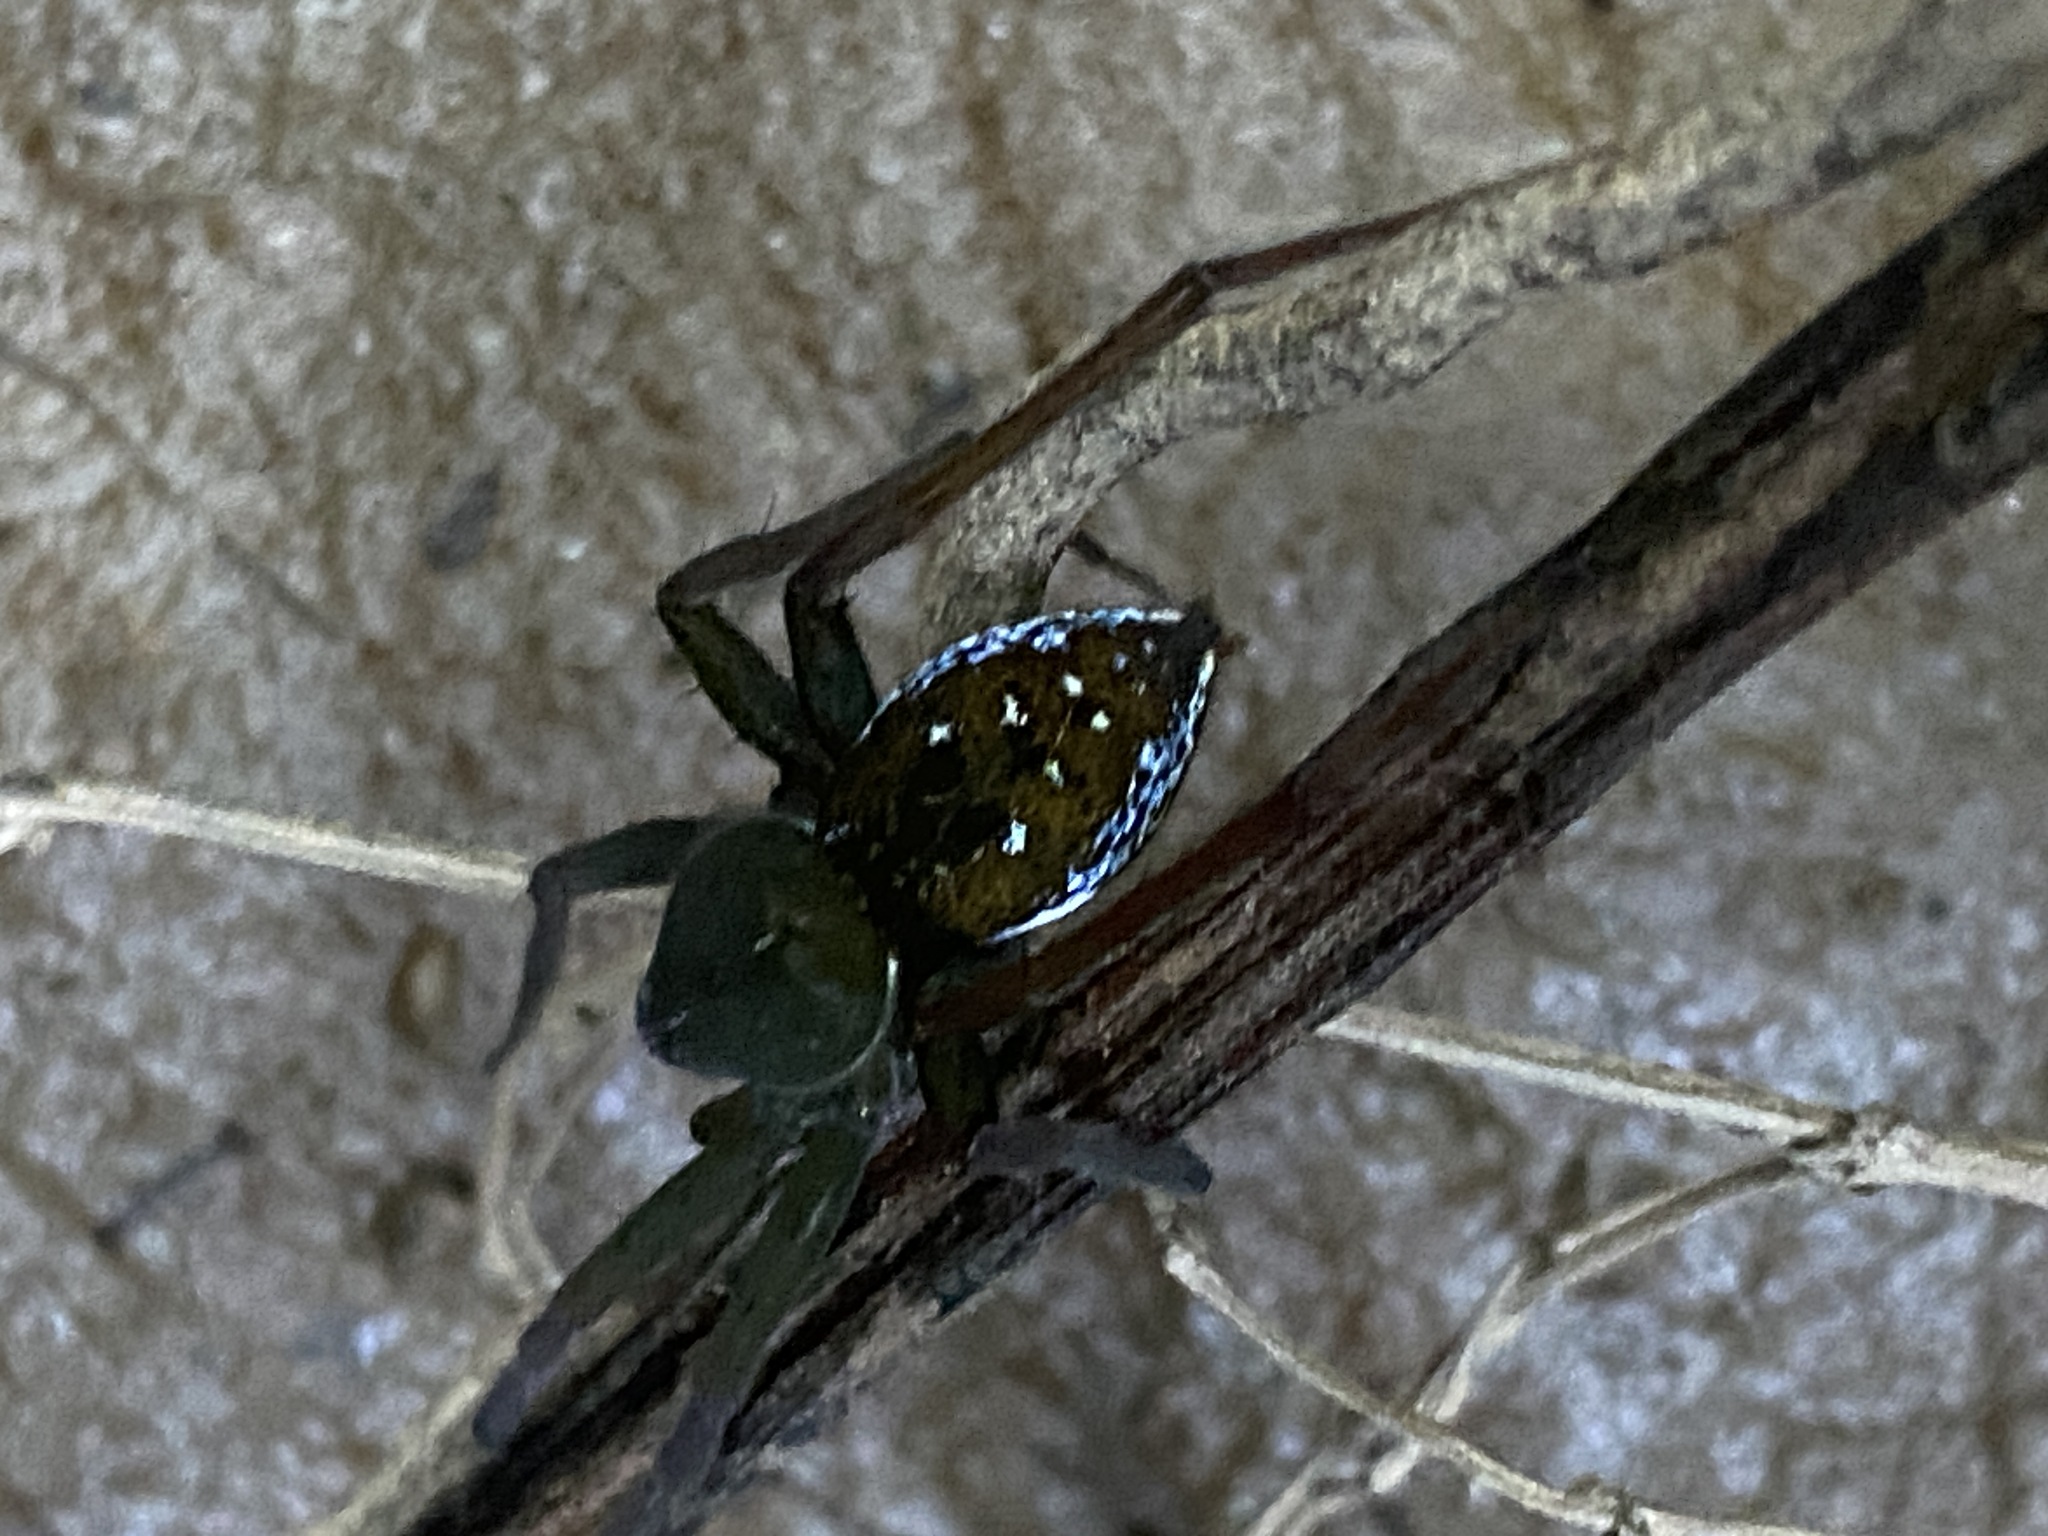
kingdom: Animalia
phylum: Arthropoda
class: Arachnida
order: Araneae
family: Pisauridae
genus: Thaumasia
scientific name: Thaumasia velox
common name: Nursery web spiders
